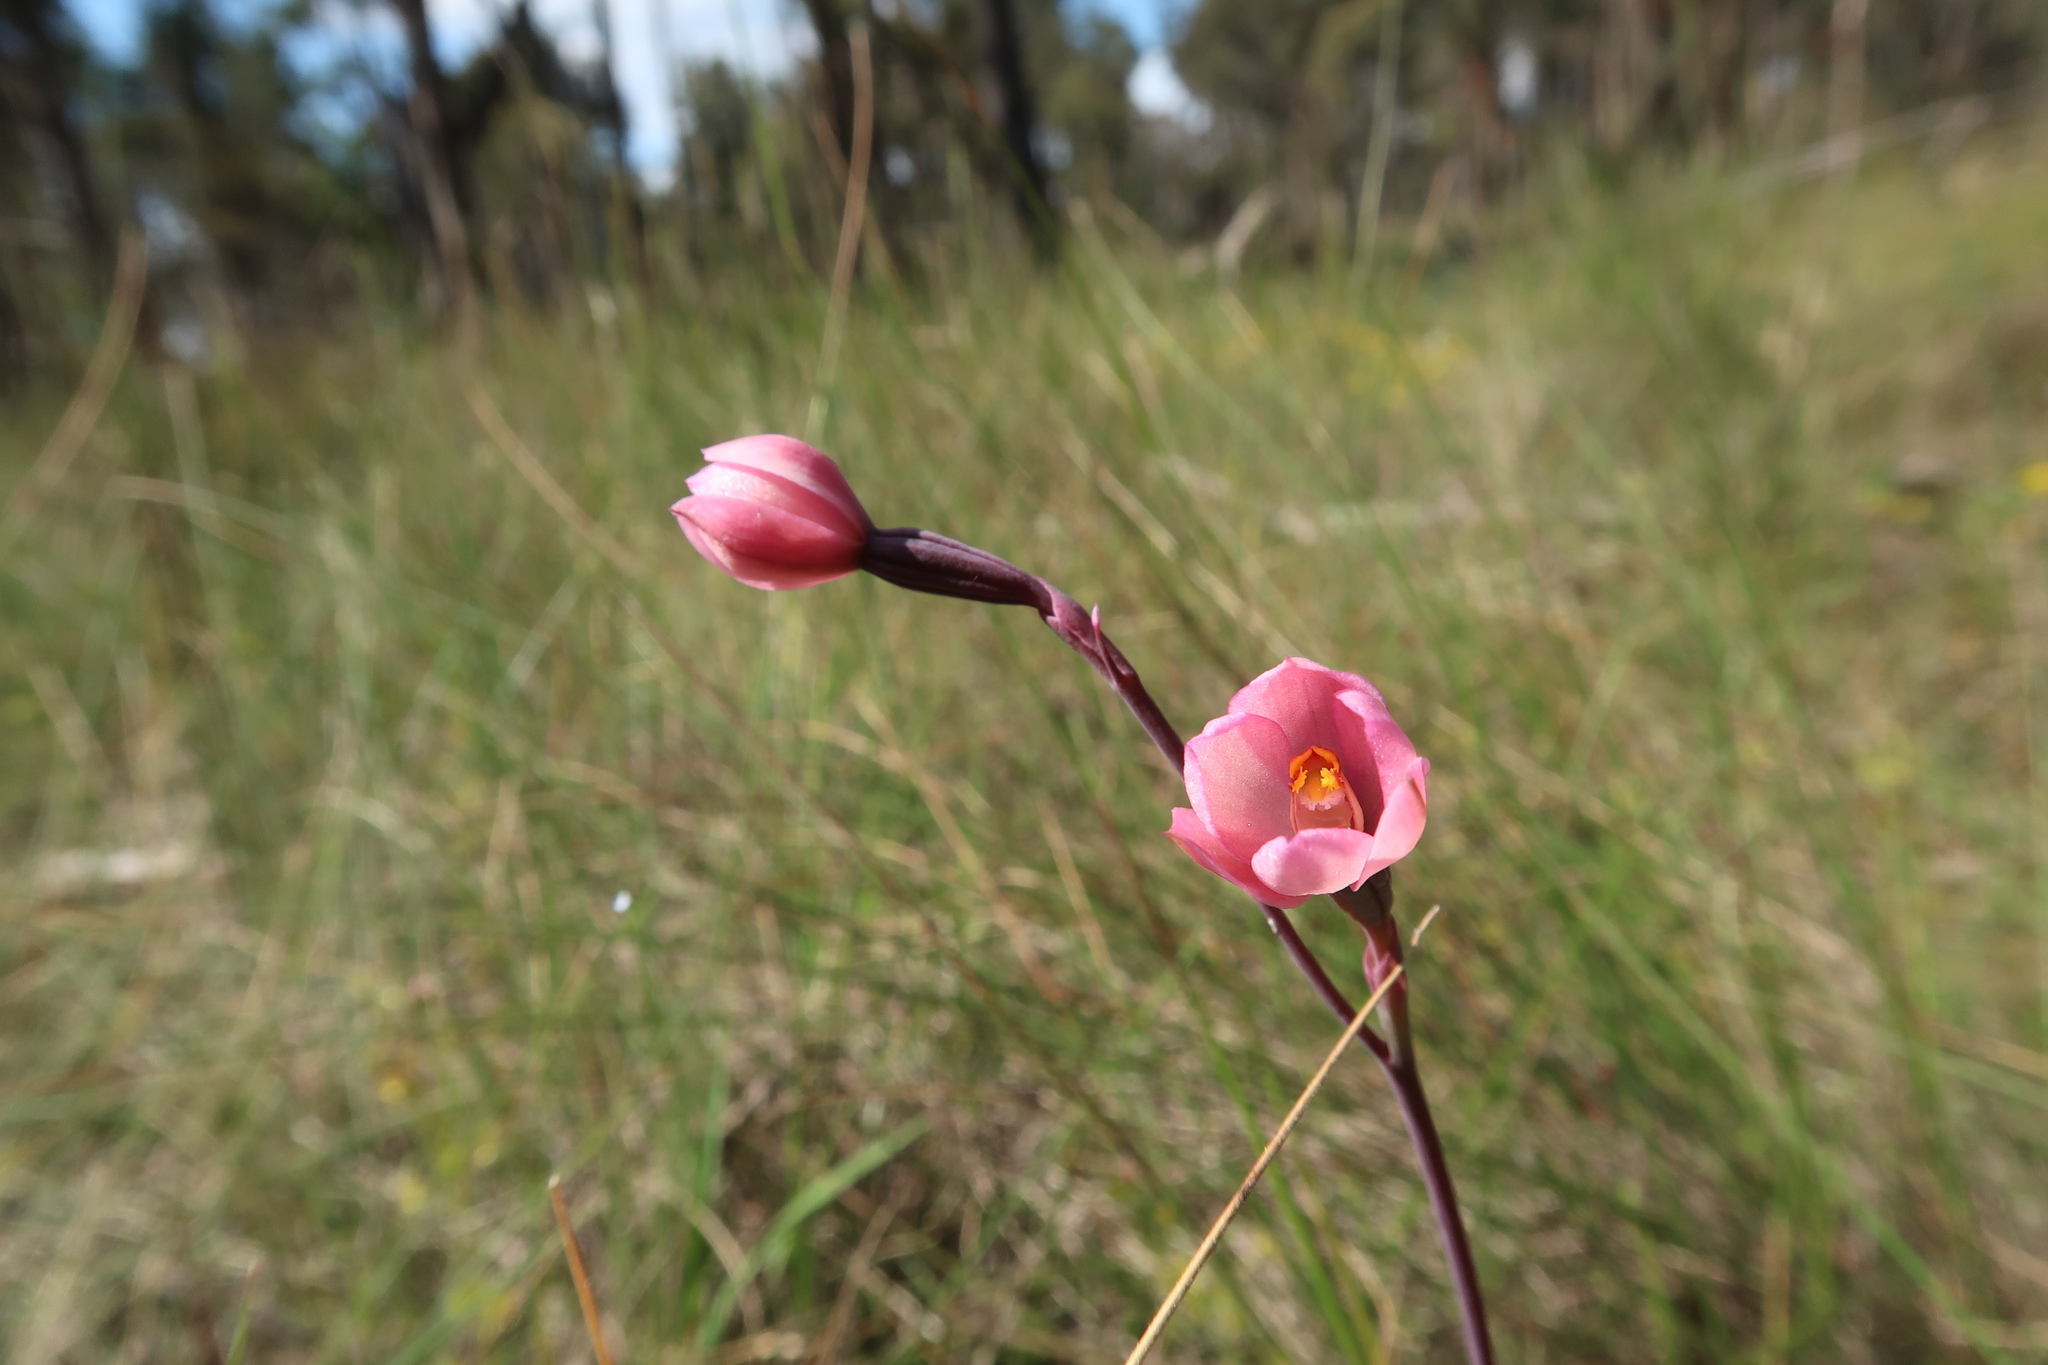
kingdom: Plantae
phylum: Tracheophyta
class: Liliopsida
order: Asparagales
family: Orchidaceae
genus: Thelymitra
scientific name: Thelymitra rubra
